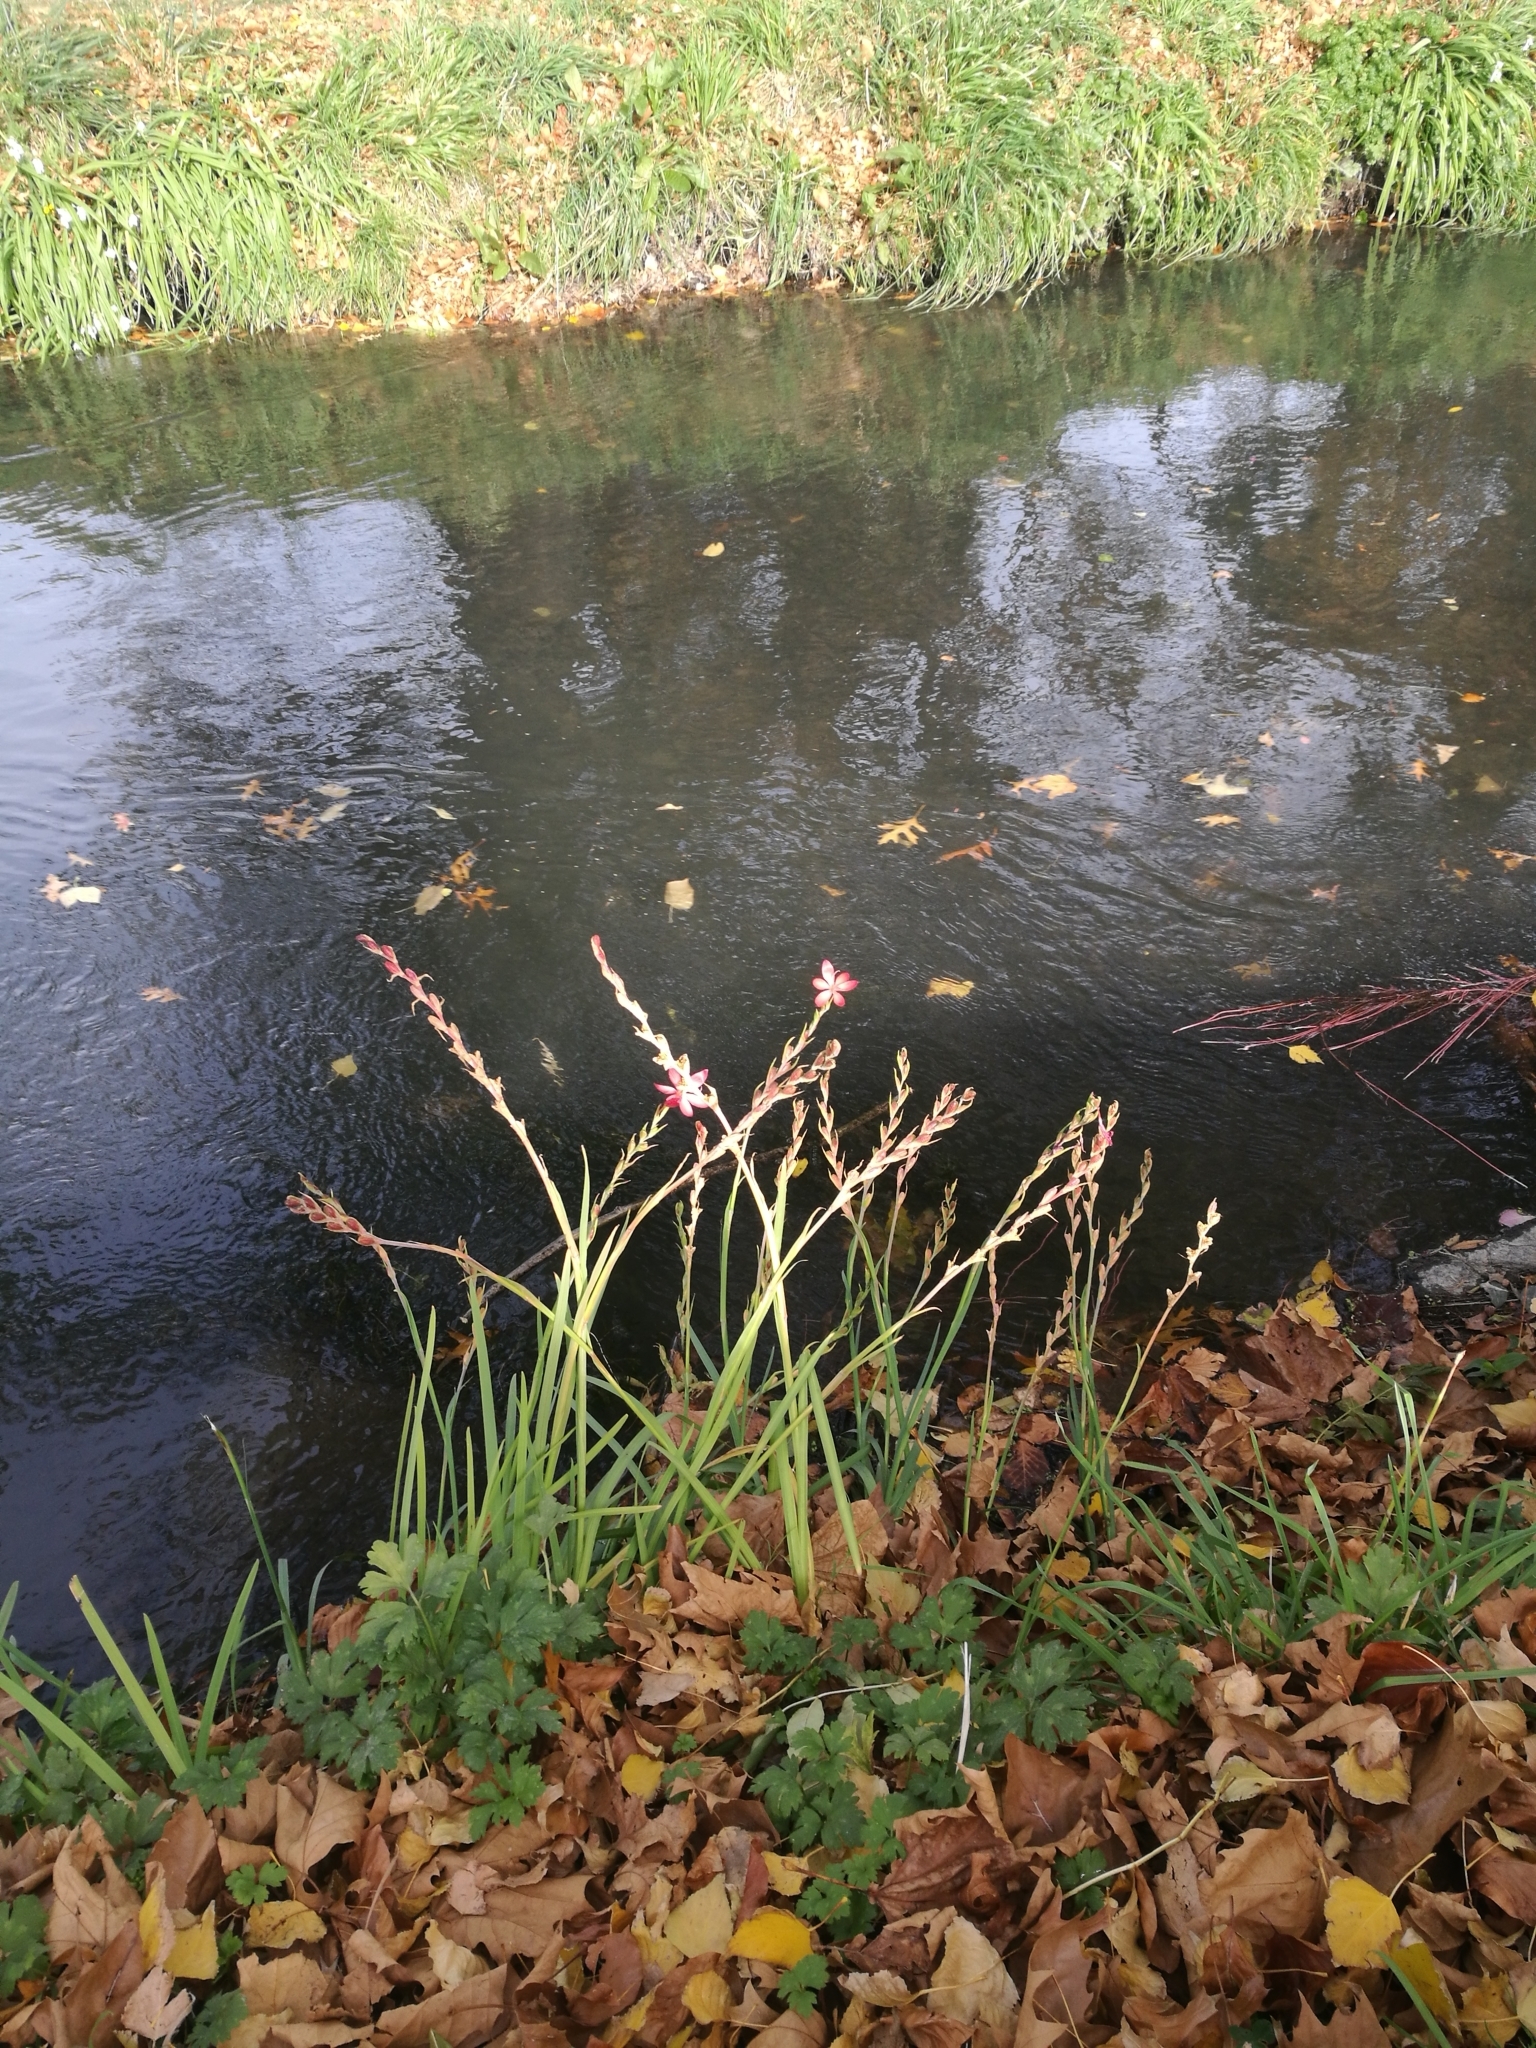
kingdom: Plantae
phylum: Tracheophyta
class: Liliopsida
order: Asparagales
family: Iridaceae
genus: Hesperantha
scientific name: Hesperantha coccinea
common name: River-lily
